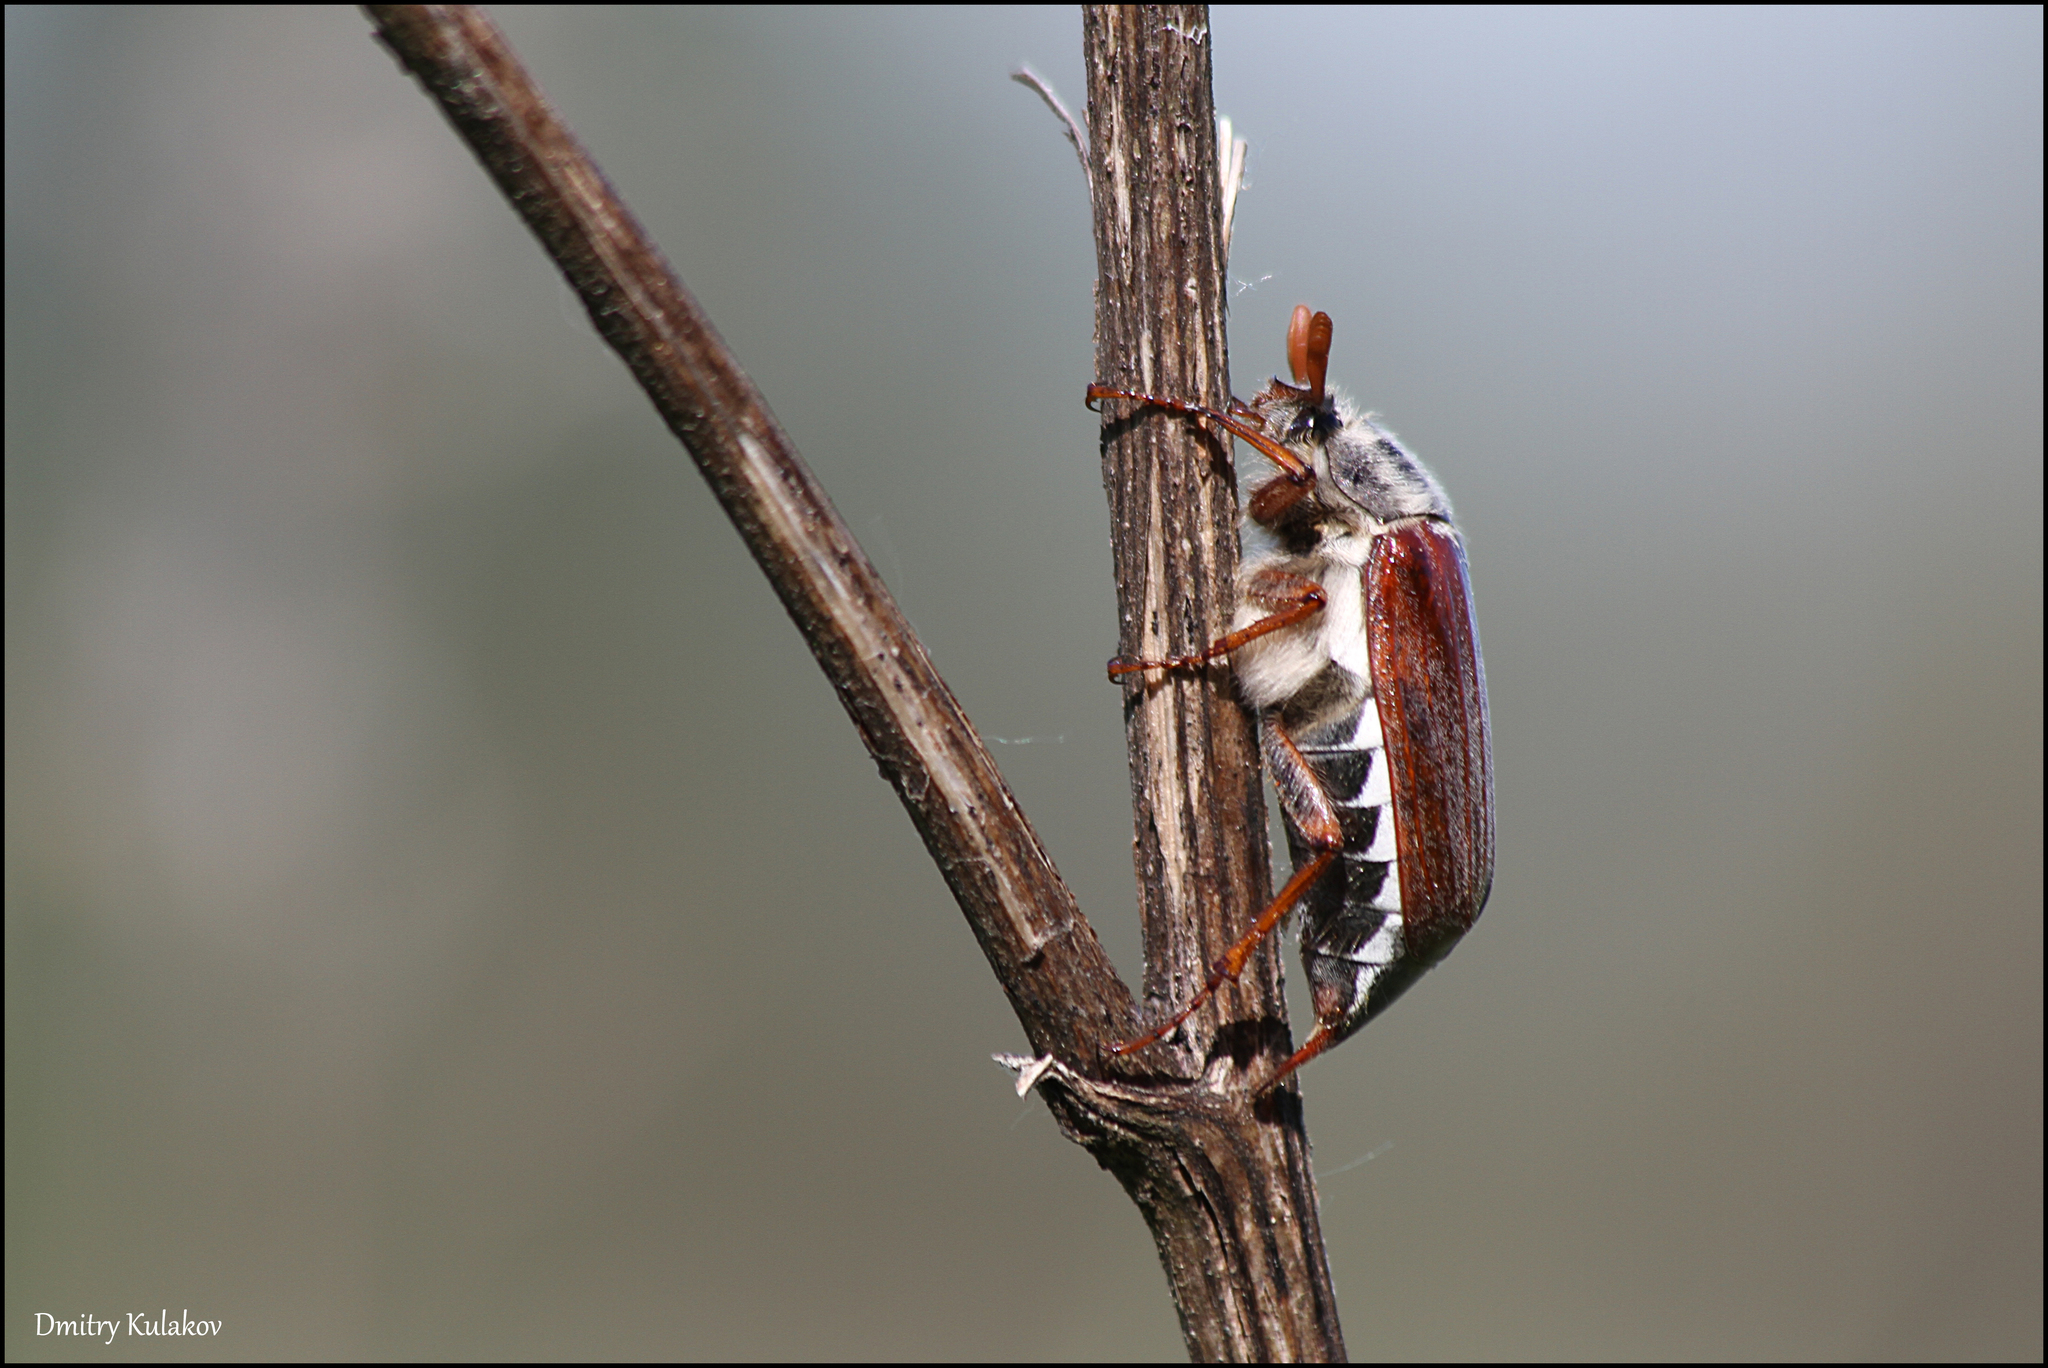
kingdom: Animalia
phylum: Arthropoda
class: Insecta
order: Coleoptera
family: Scarabaeidae
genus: Melolontha
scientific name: Melolontha melolontha
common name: Cockchafer maybeetle
